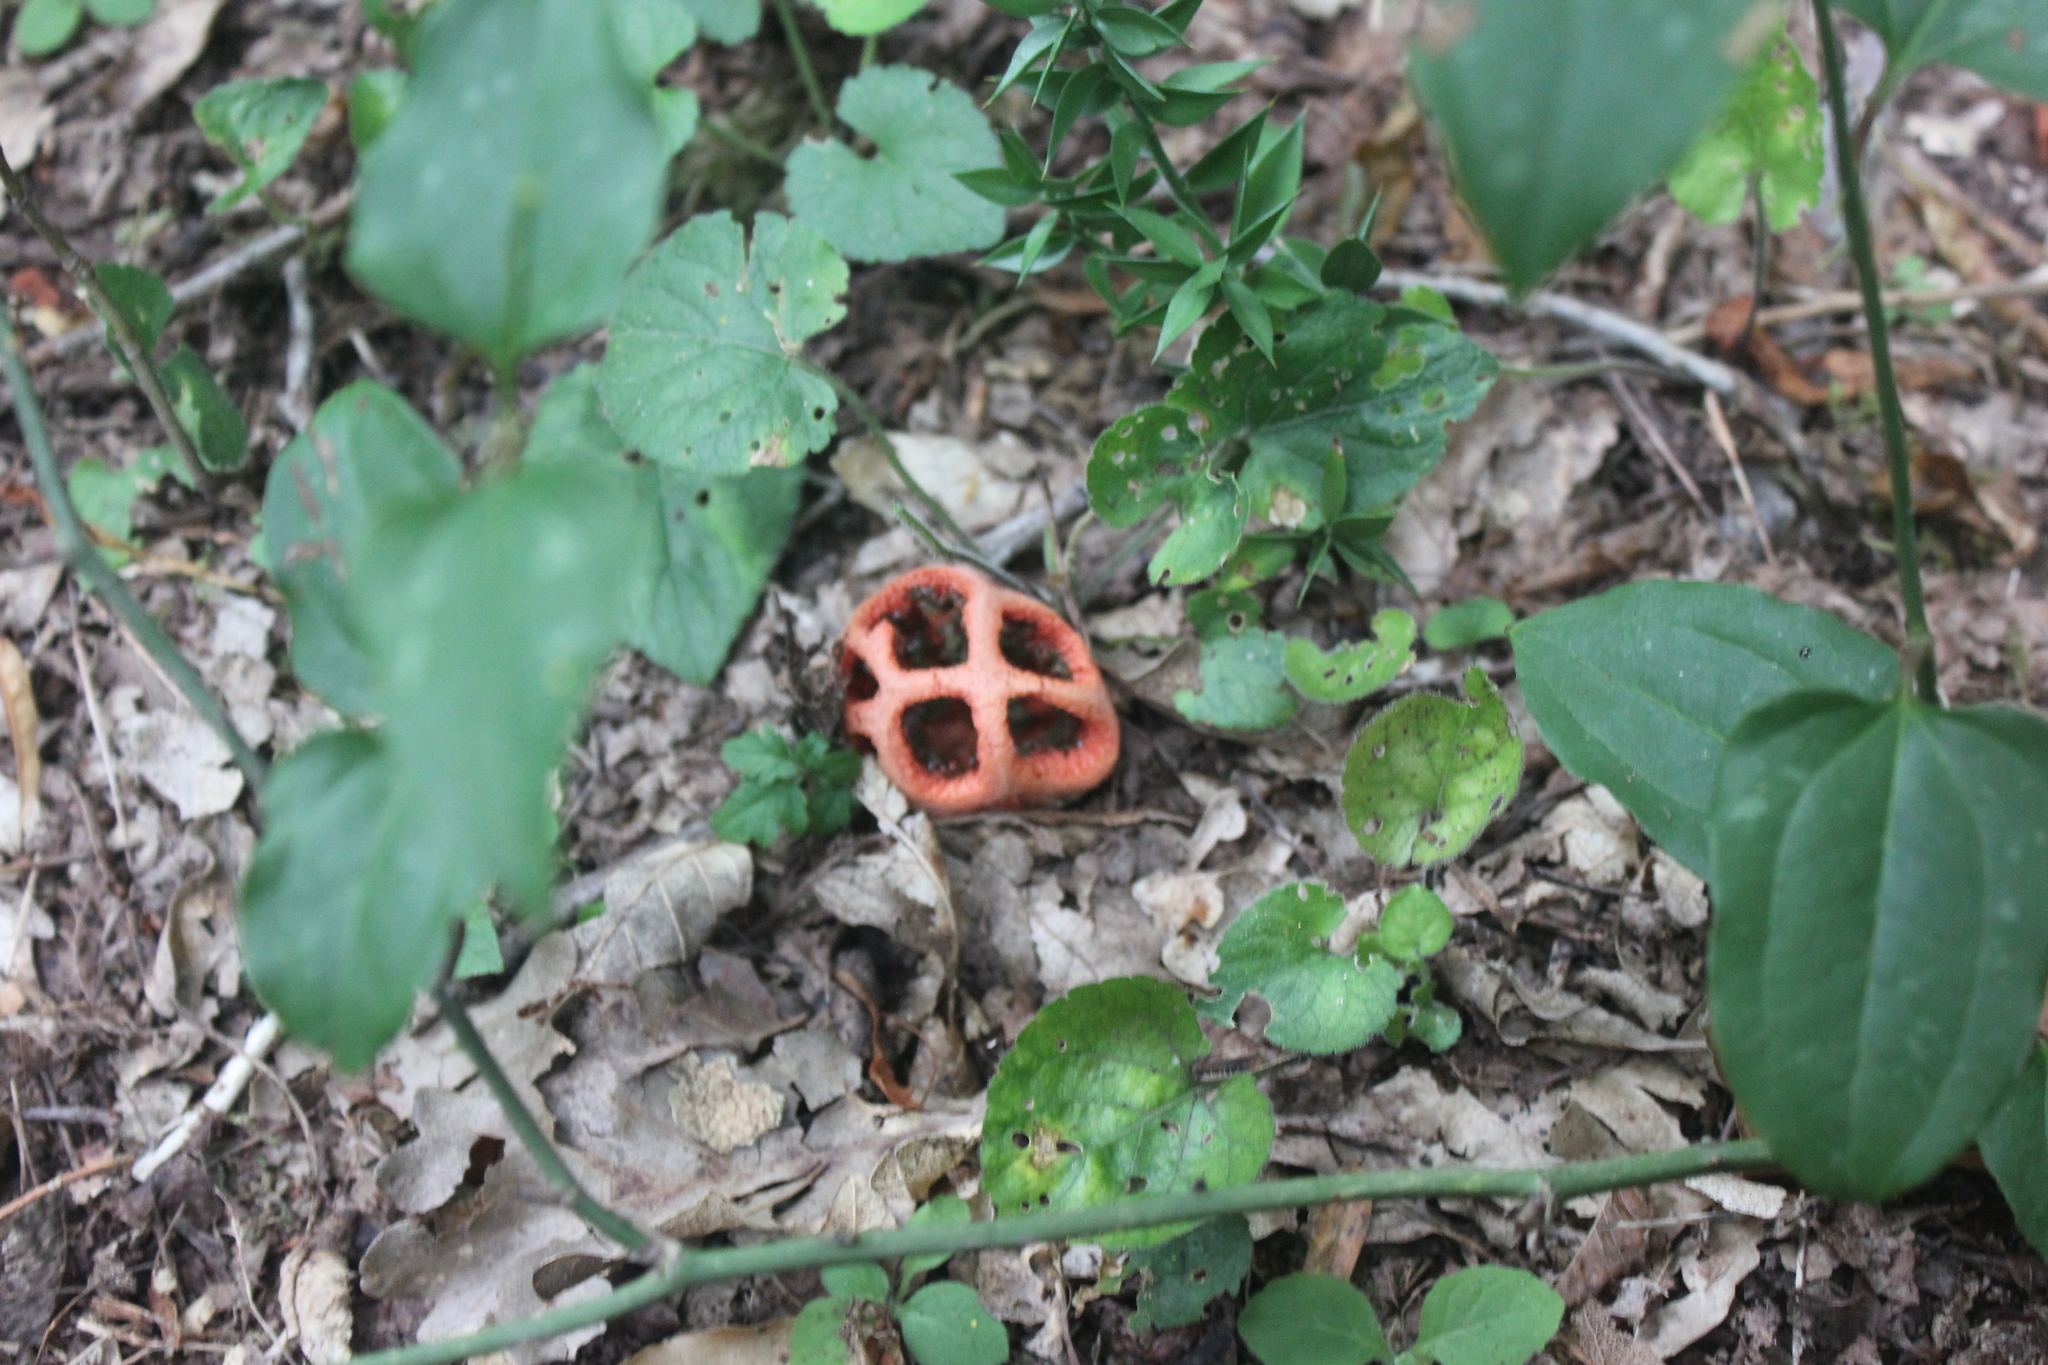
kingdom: Fungi
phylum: Basidiomycota
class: Agaricomycetes
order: Phallales
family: Phallaceae
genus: Clathrus
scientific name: Clathrus ruber
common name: Red cage
